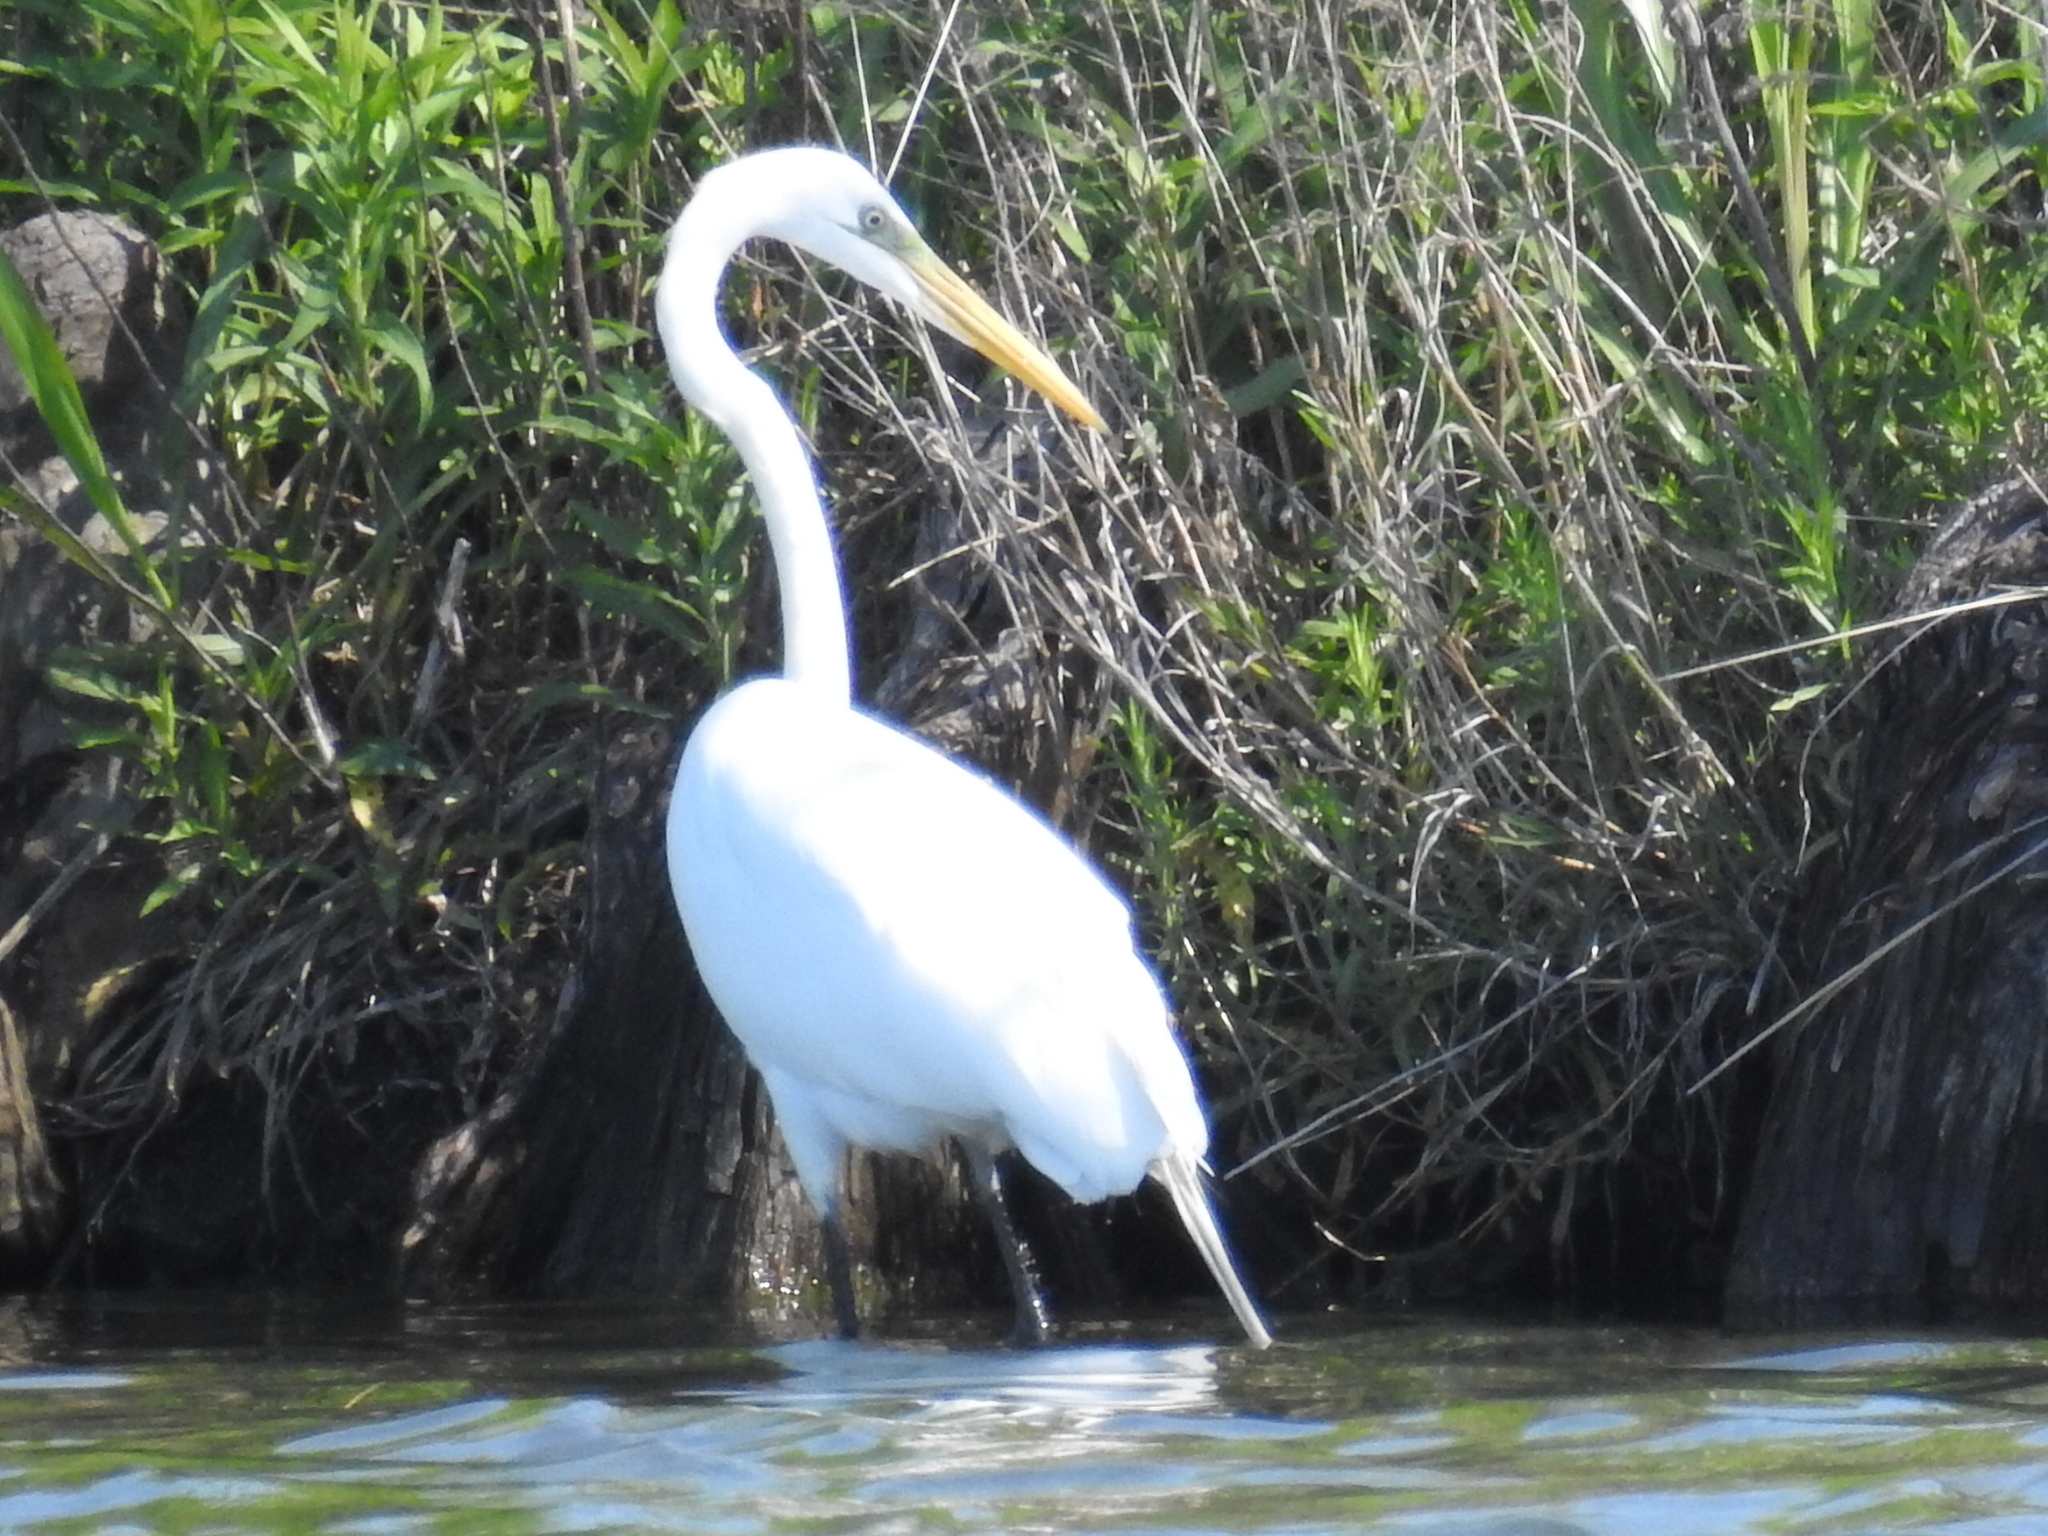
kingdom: Animalia
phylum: Chordata
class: Aves
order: Pelecaniformes
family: Ardeidae
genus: Ardea
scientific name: Ardea alba
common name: Great egret
